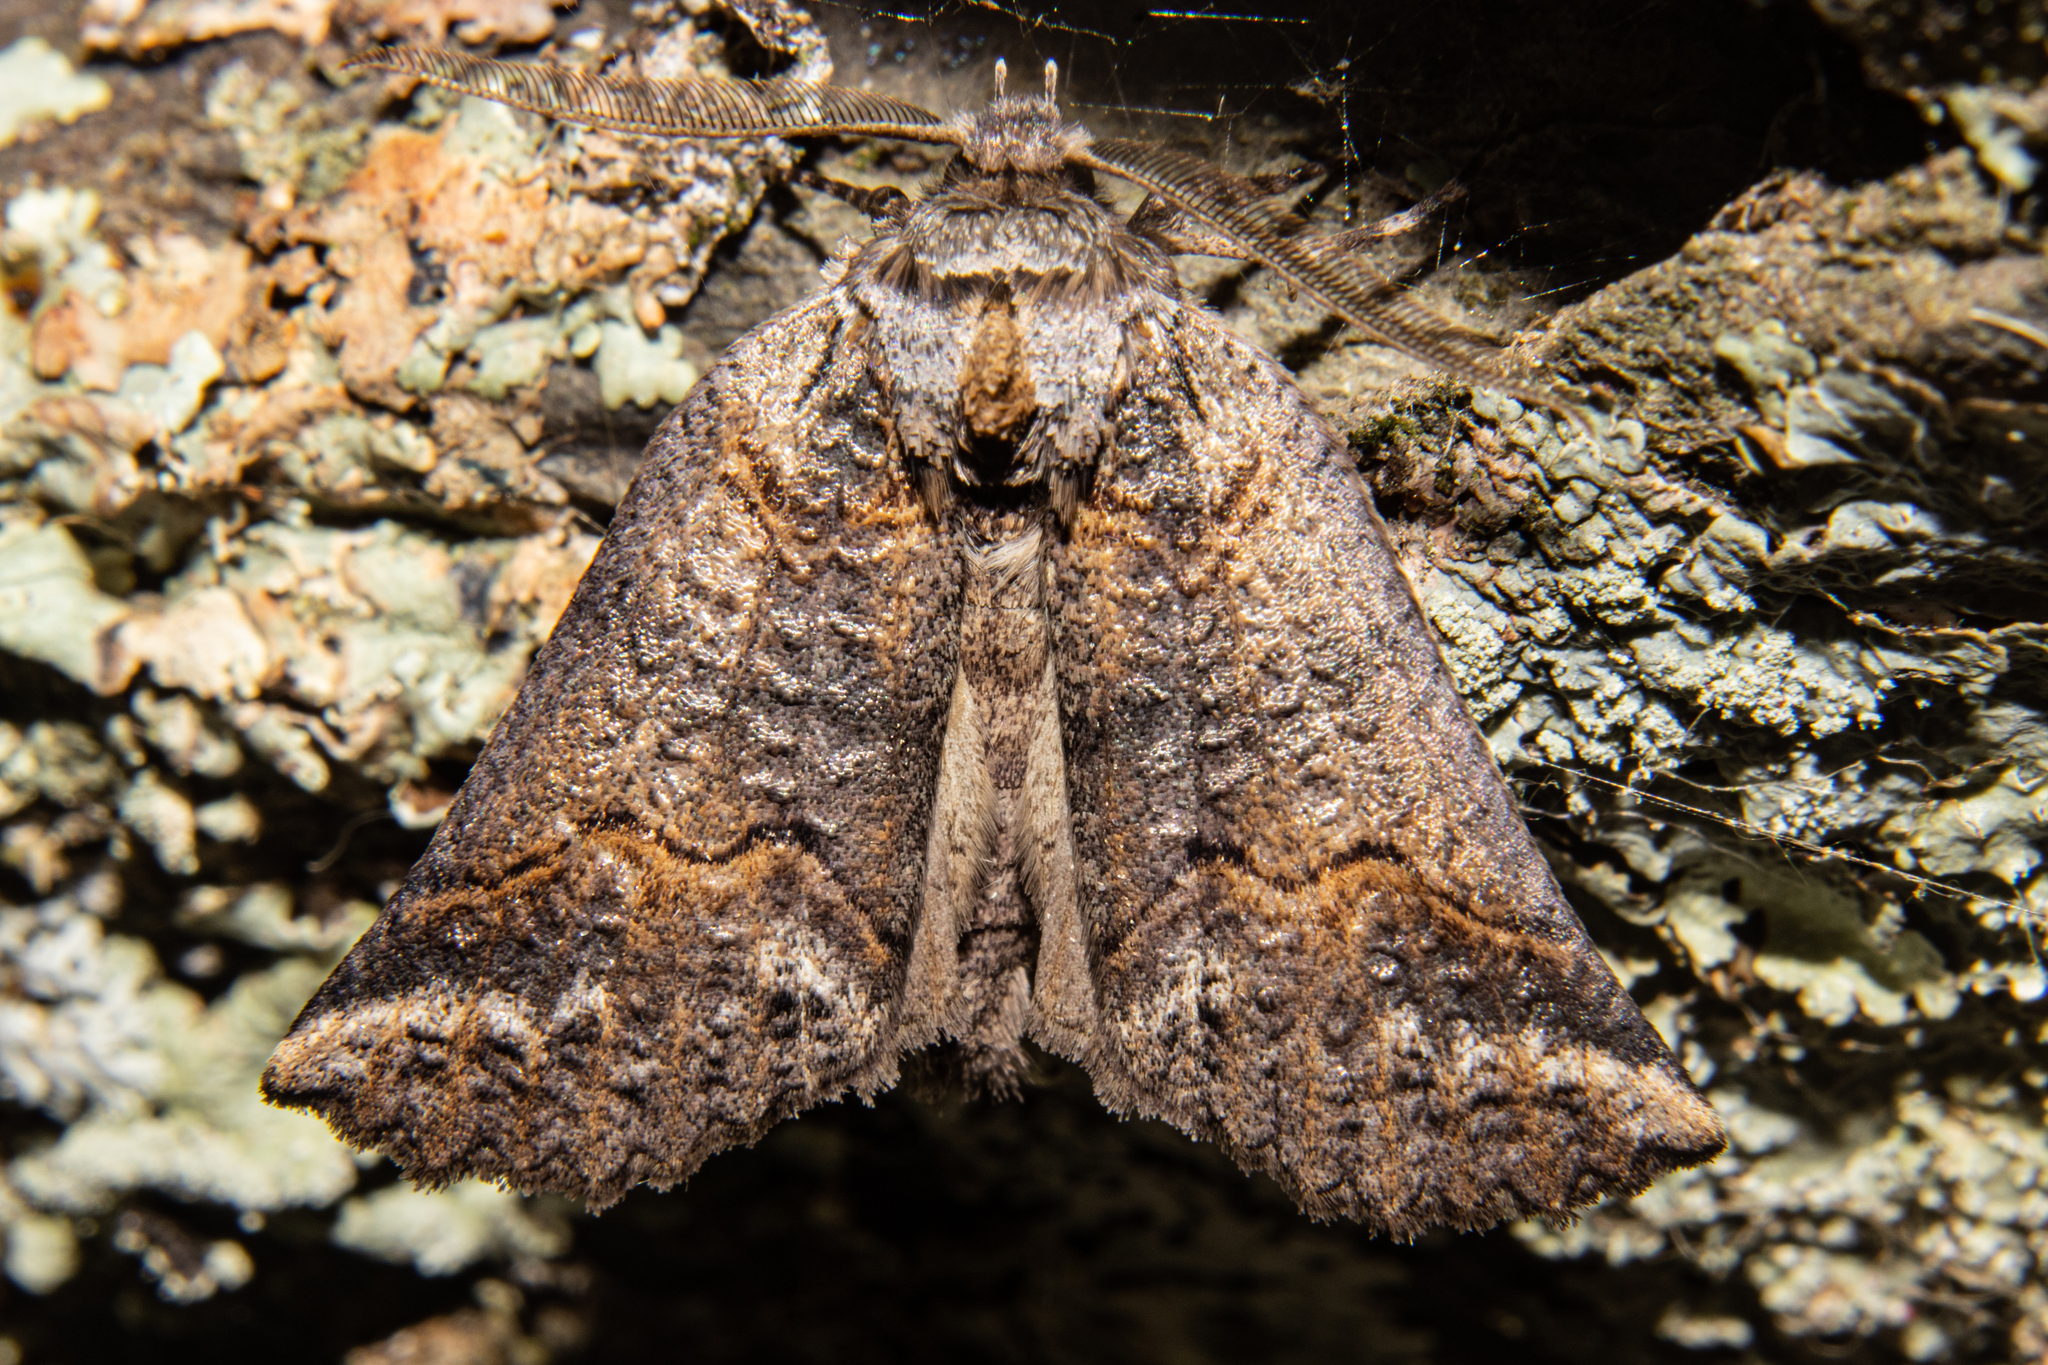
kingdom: Animalia
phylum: Arthropoda
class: Insecta
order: Lepidoptera
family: Geometridae
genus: Declana
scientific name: Declana
